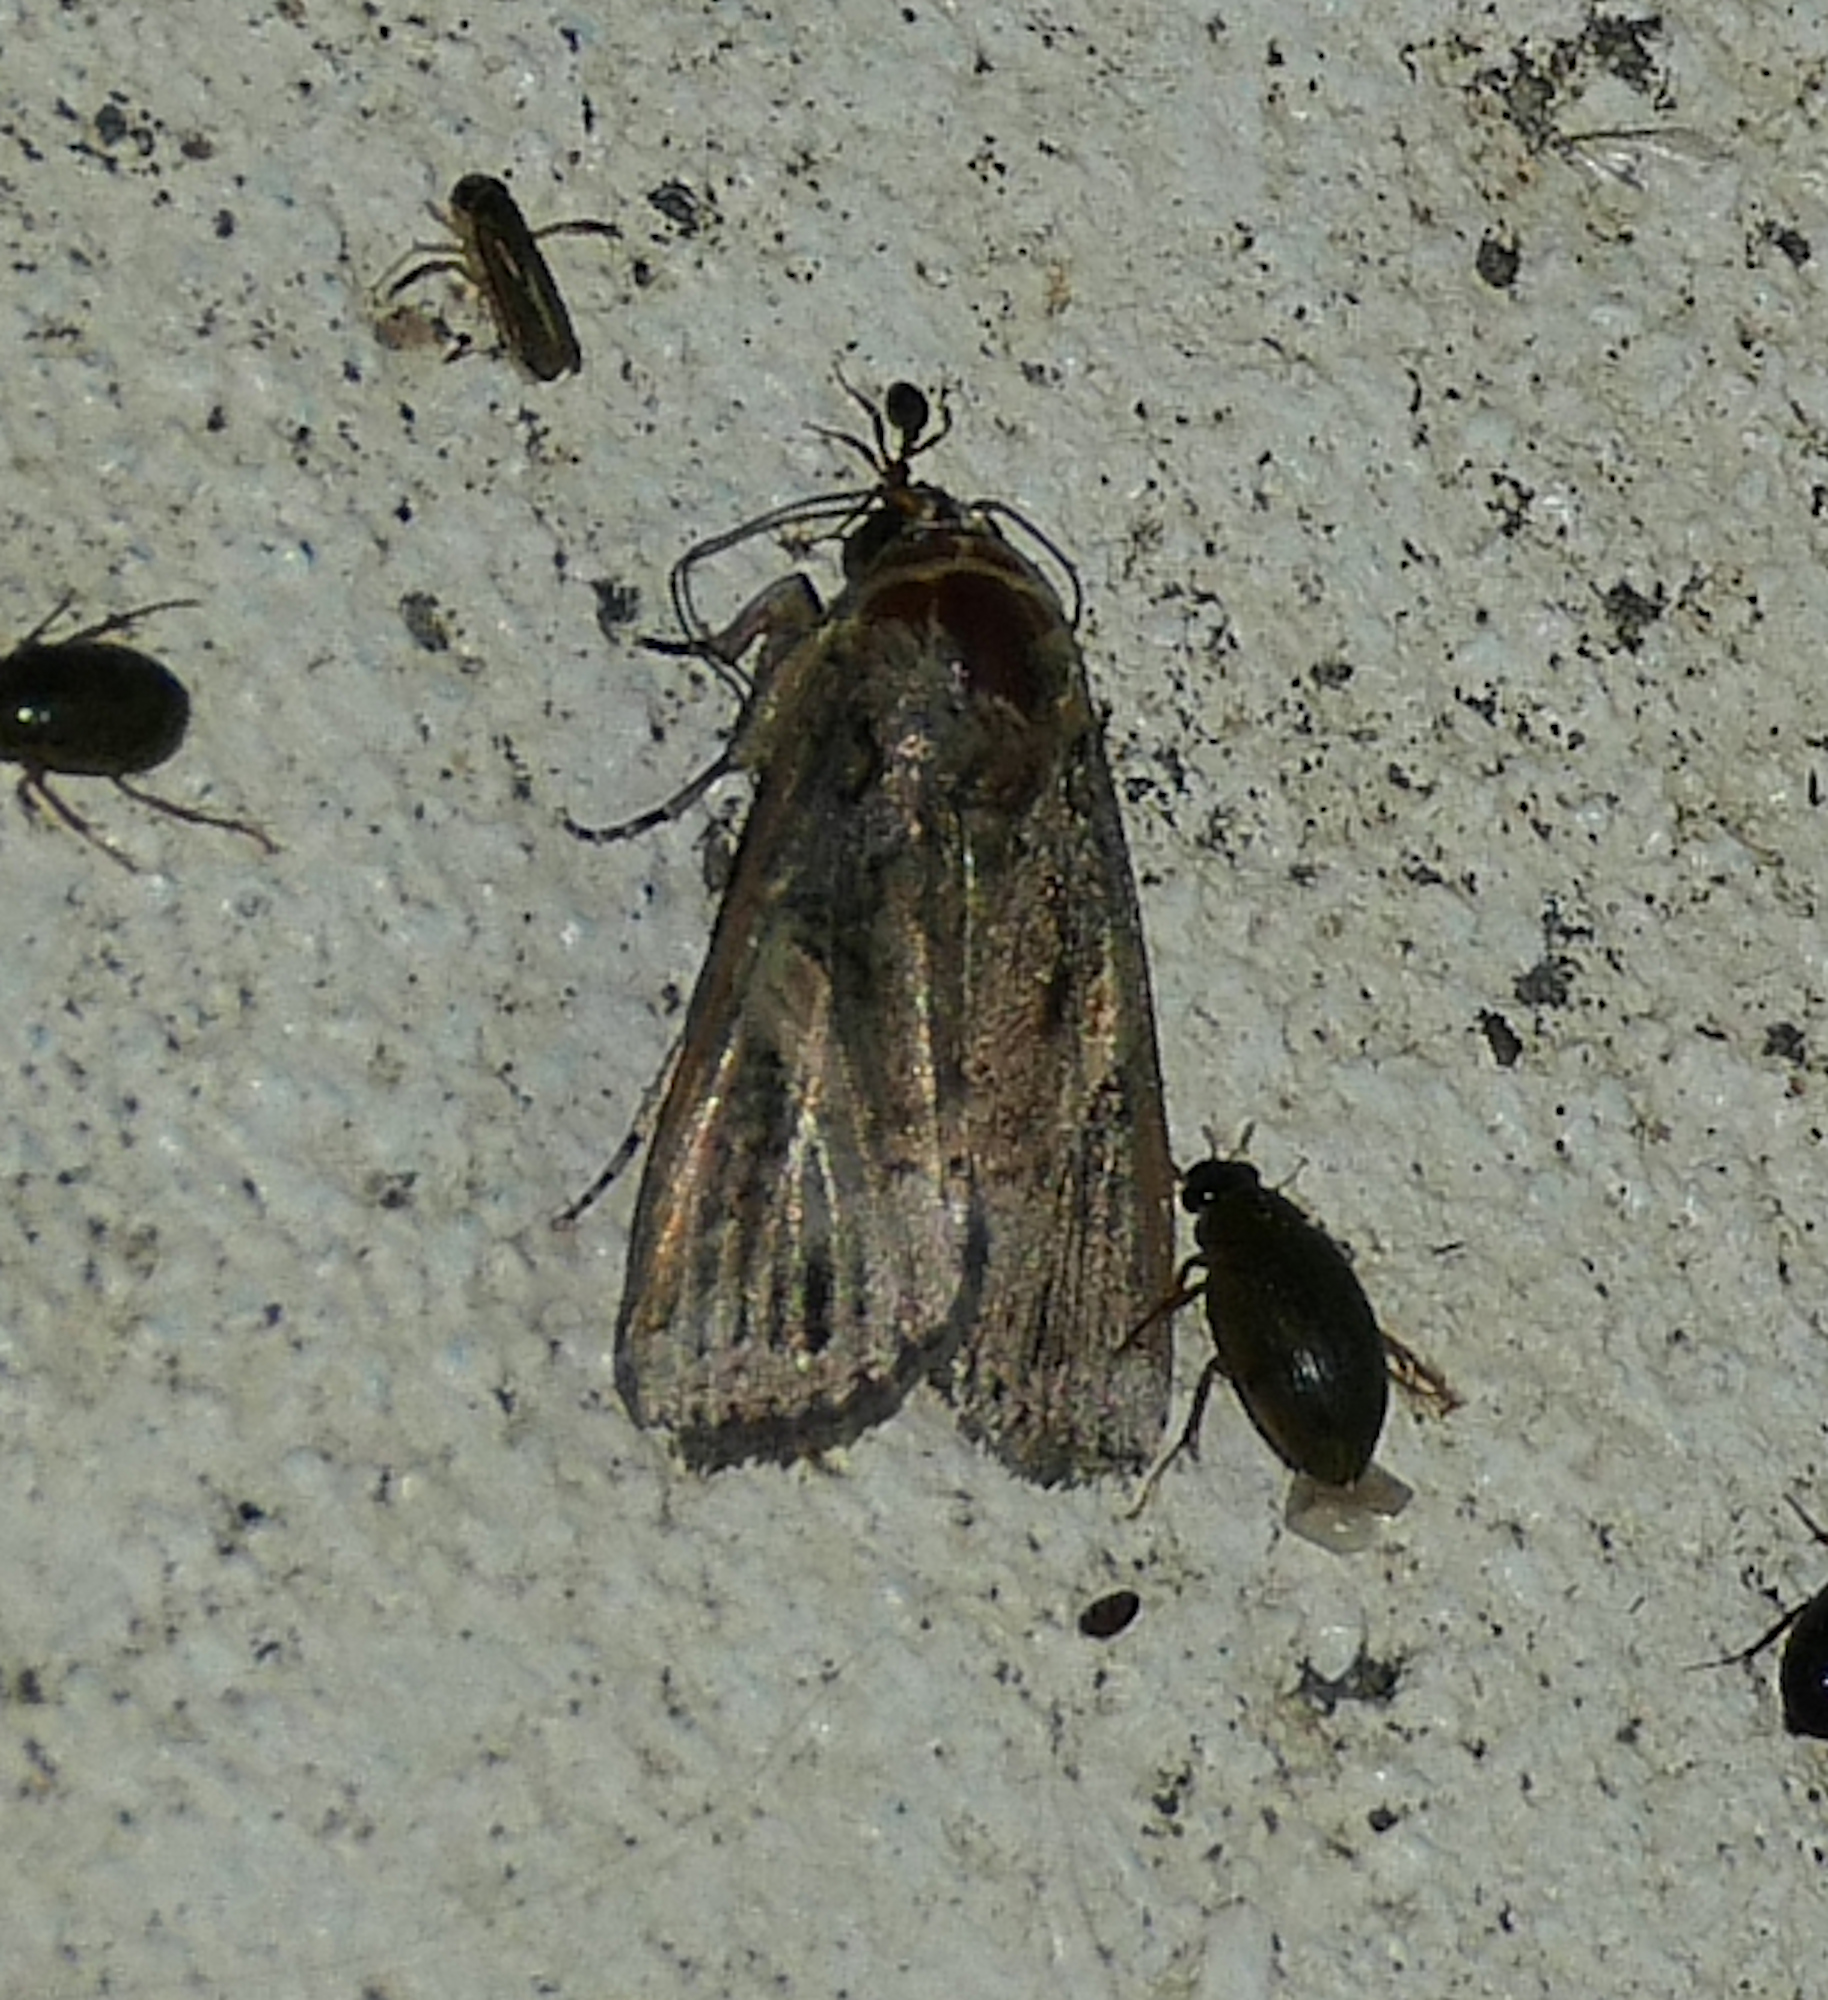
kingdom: Animalia
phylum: Arthropoda
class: Insecta
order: Lepidoptera
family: Noctuidae
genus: Spodoptera
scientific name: Spodoptera frugiperda
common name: Fall armyworm
